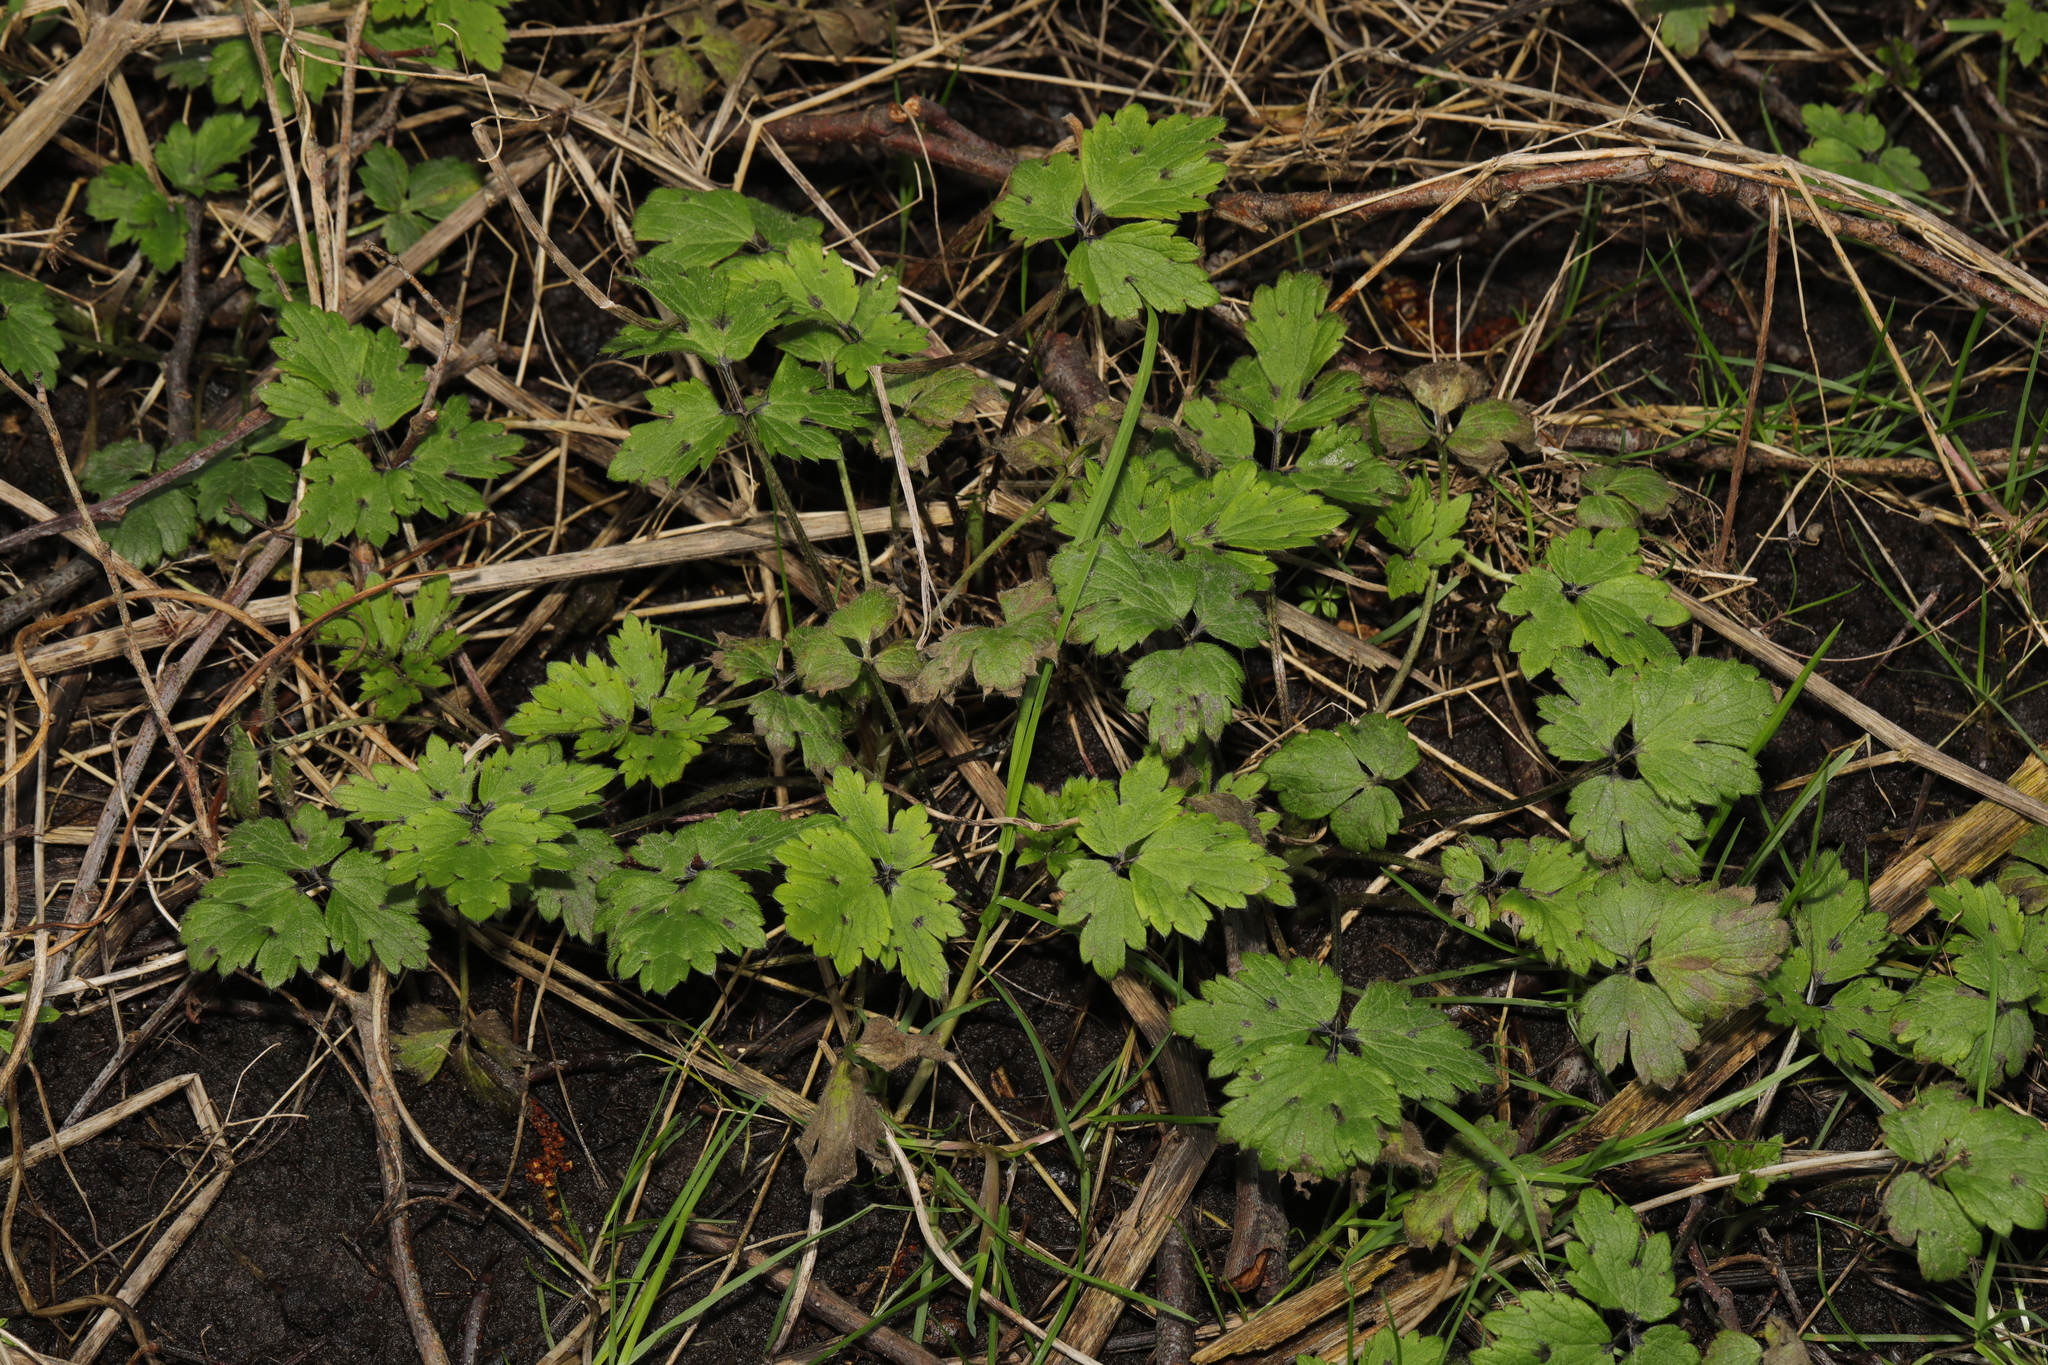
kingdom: Plantae
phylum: Tracheophyta
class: Magnoliopsida
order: Ranunculales
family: Ranunculaceae
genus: Ranunculus
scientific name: Ranunculus repens
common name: Creeping buttercup
